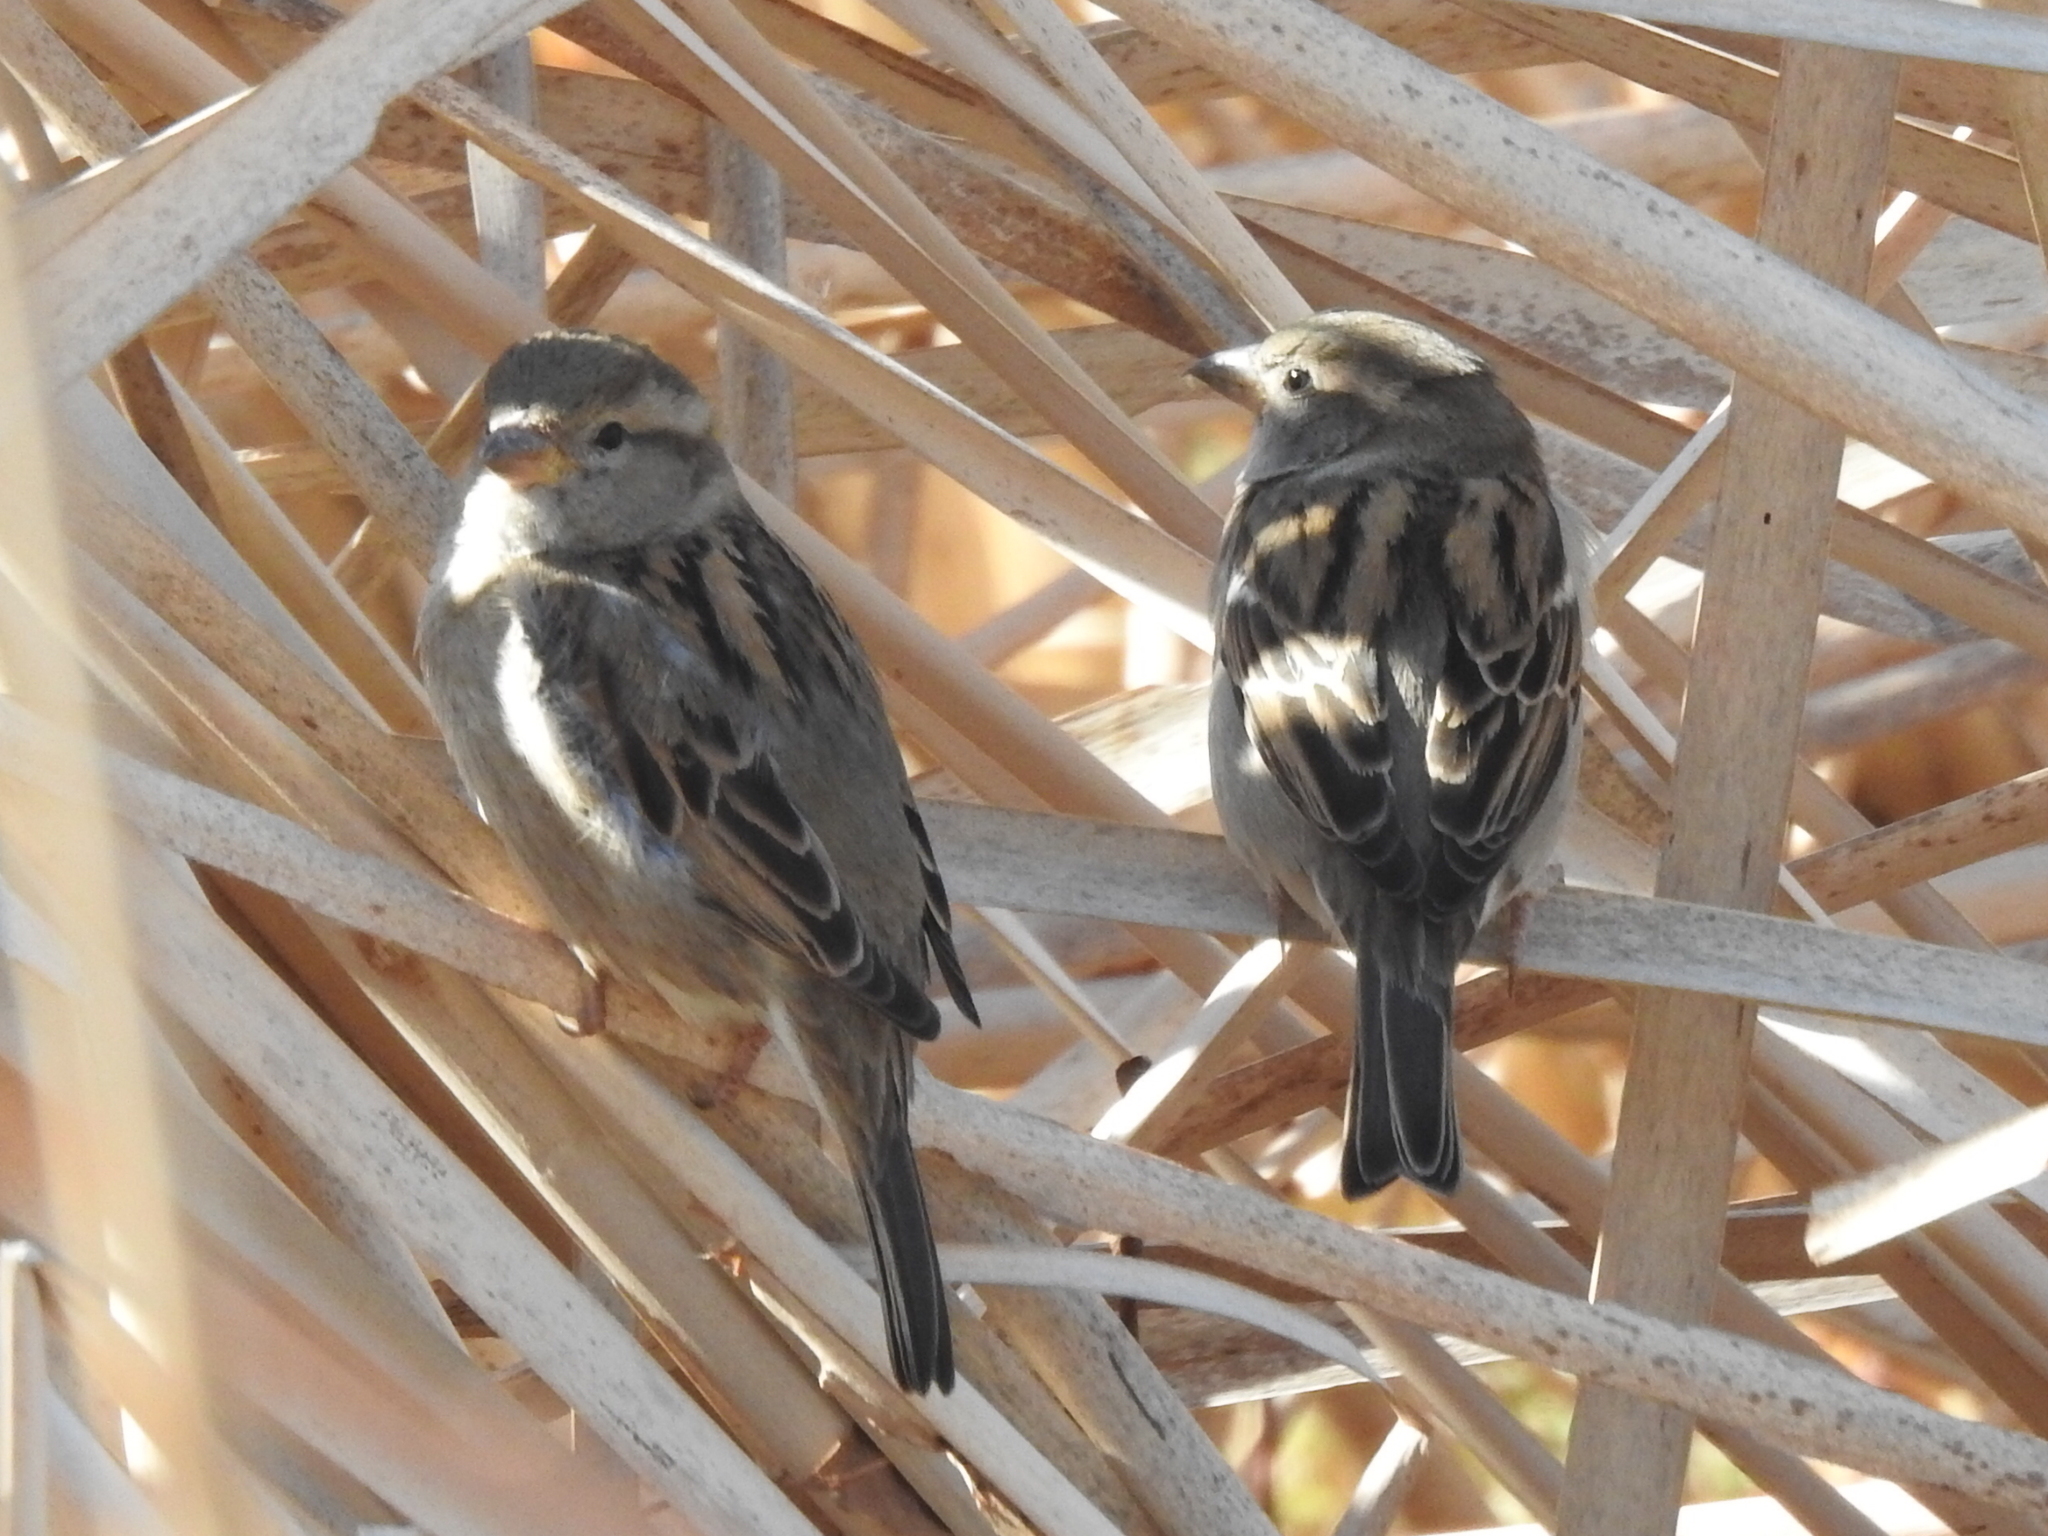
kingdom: Animalia
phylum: Chordata
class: Aves
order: Passeriformes
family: Passeridae
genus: Passer
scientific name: Passer domesticus
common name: House sparrow
